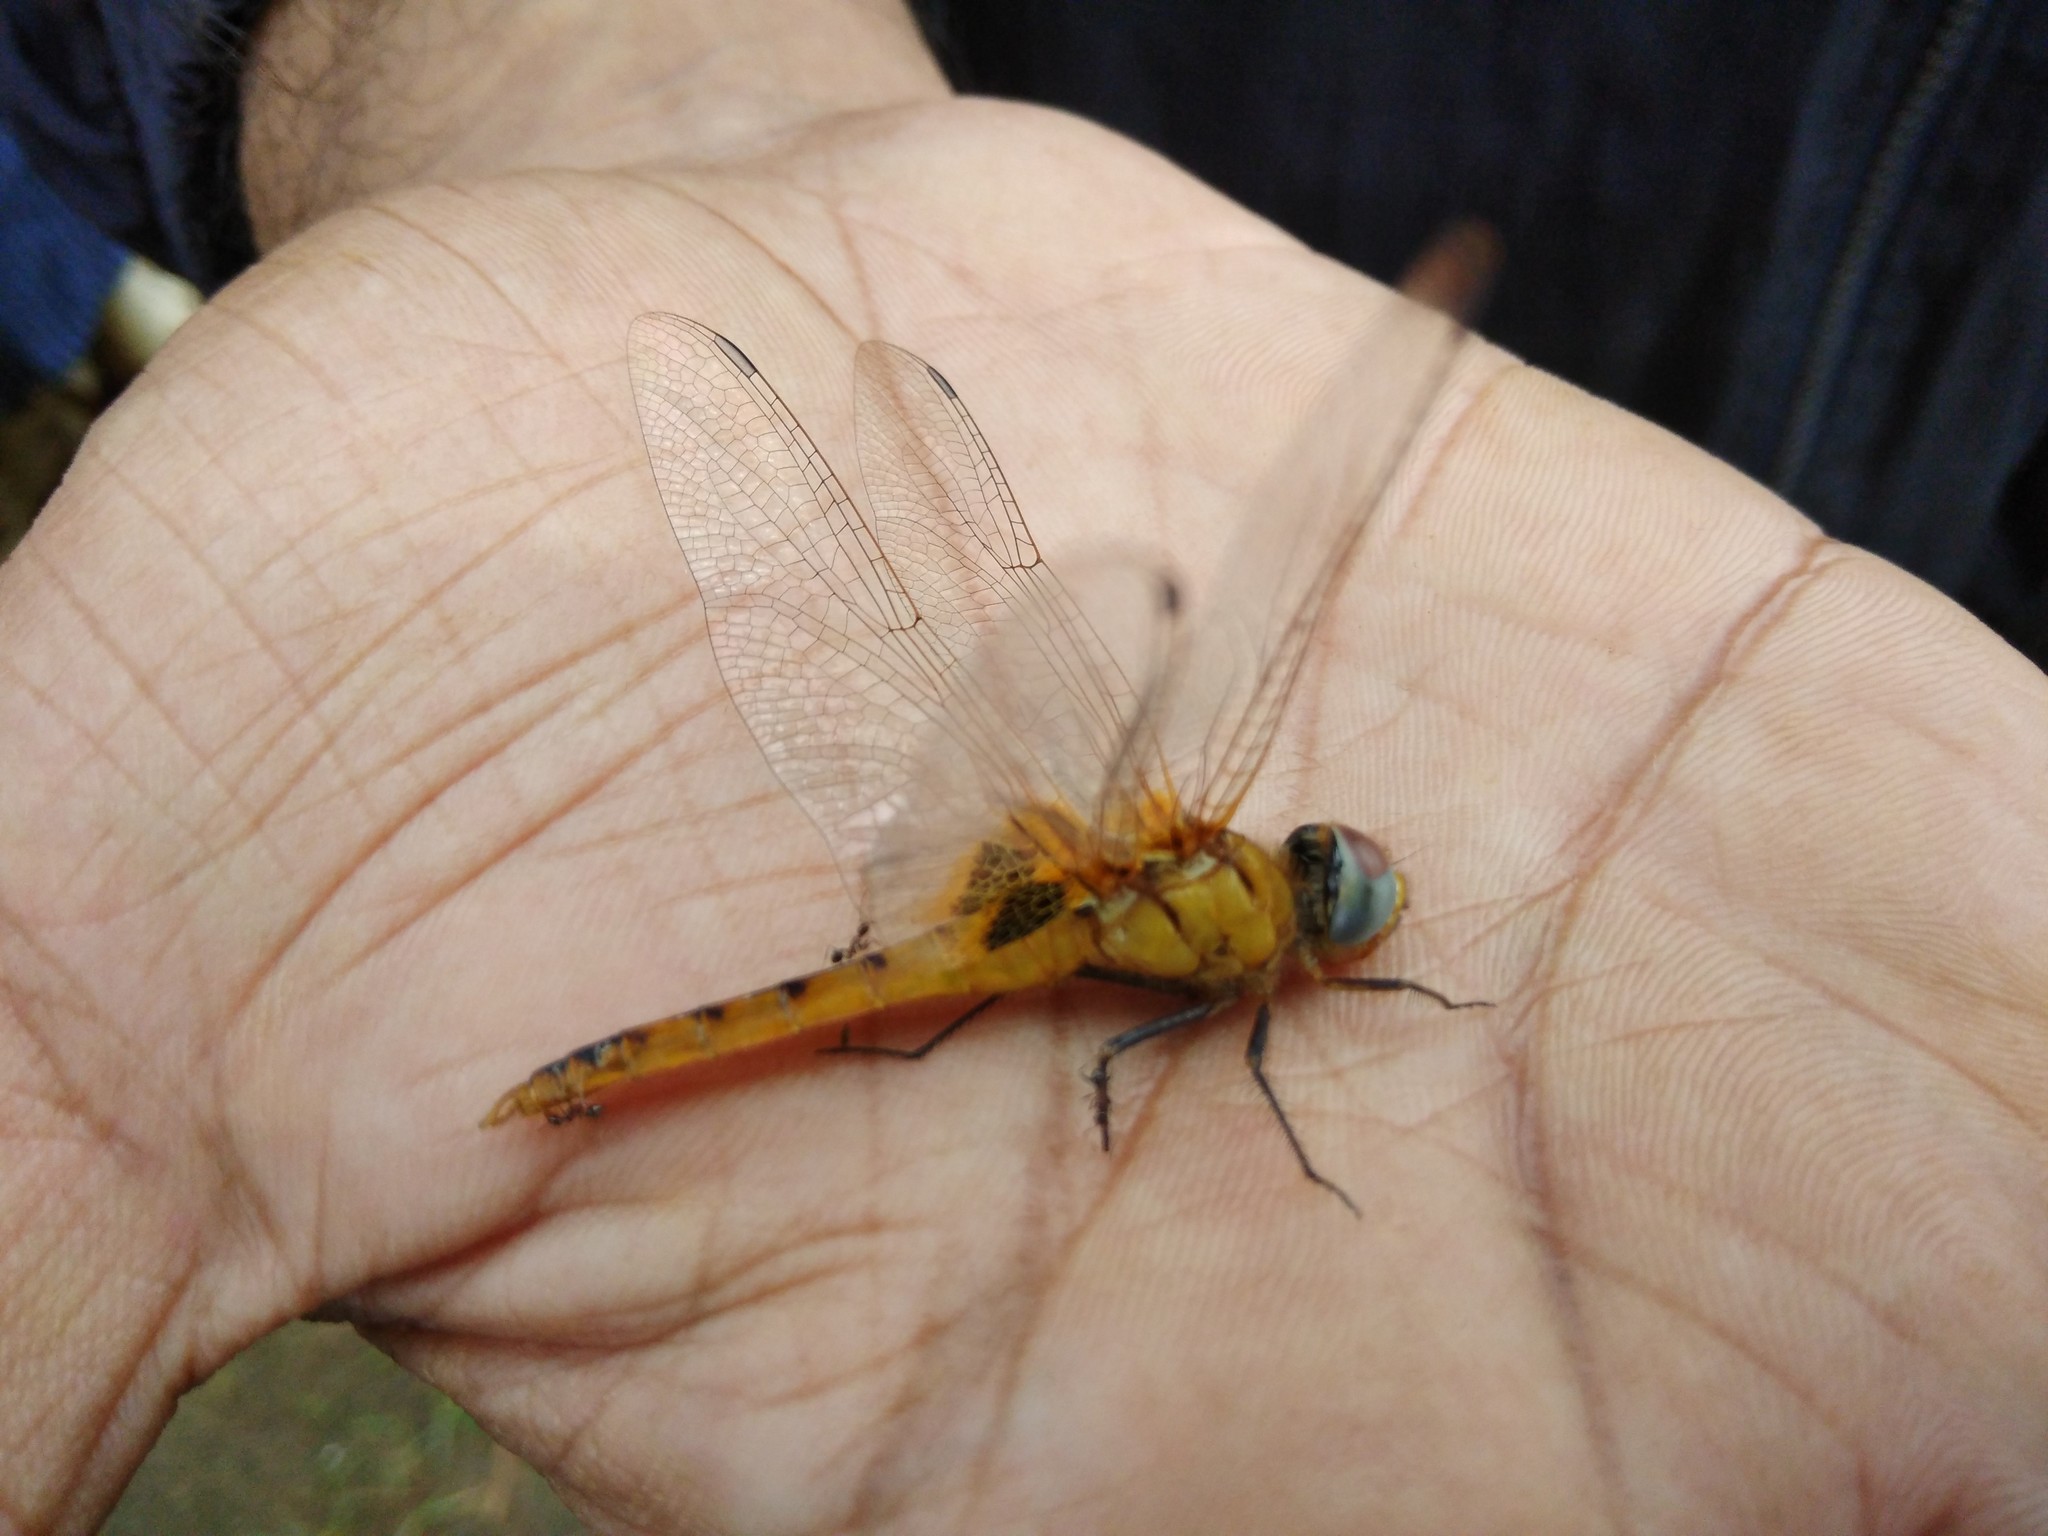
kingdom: Animalia
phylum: Arthropoda
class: Insecta
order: Odonata
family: Libellulidae
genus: Urothemis
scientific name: Urothemis signata
